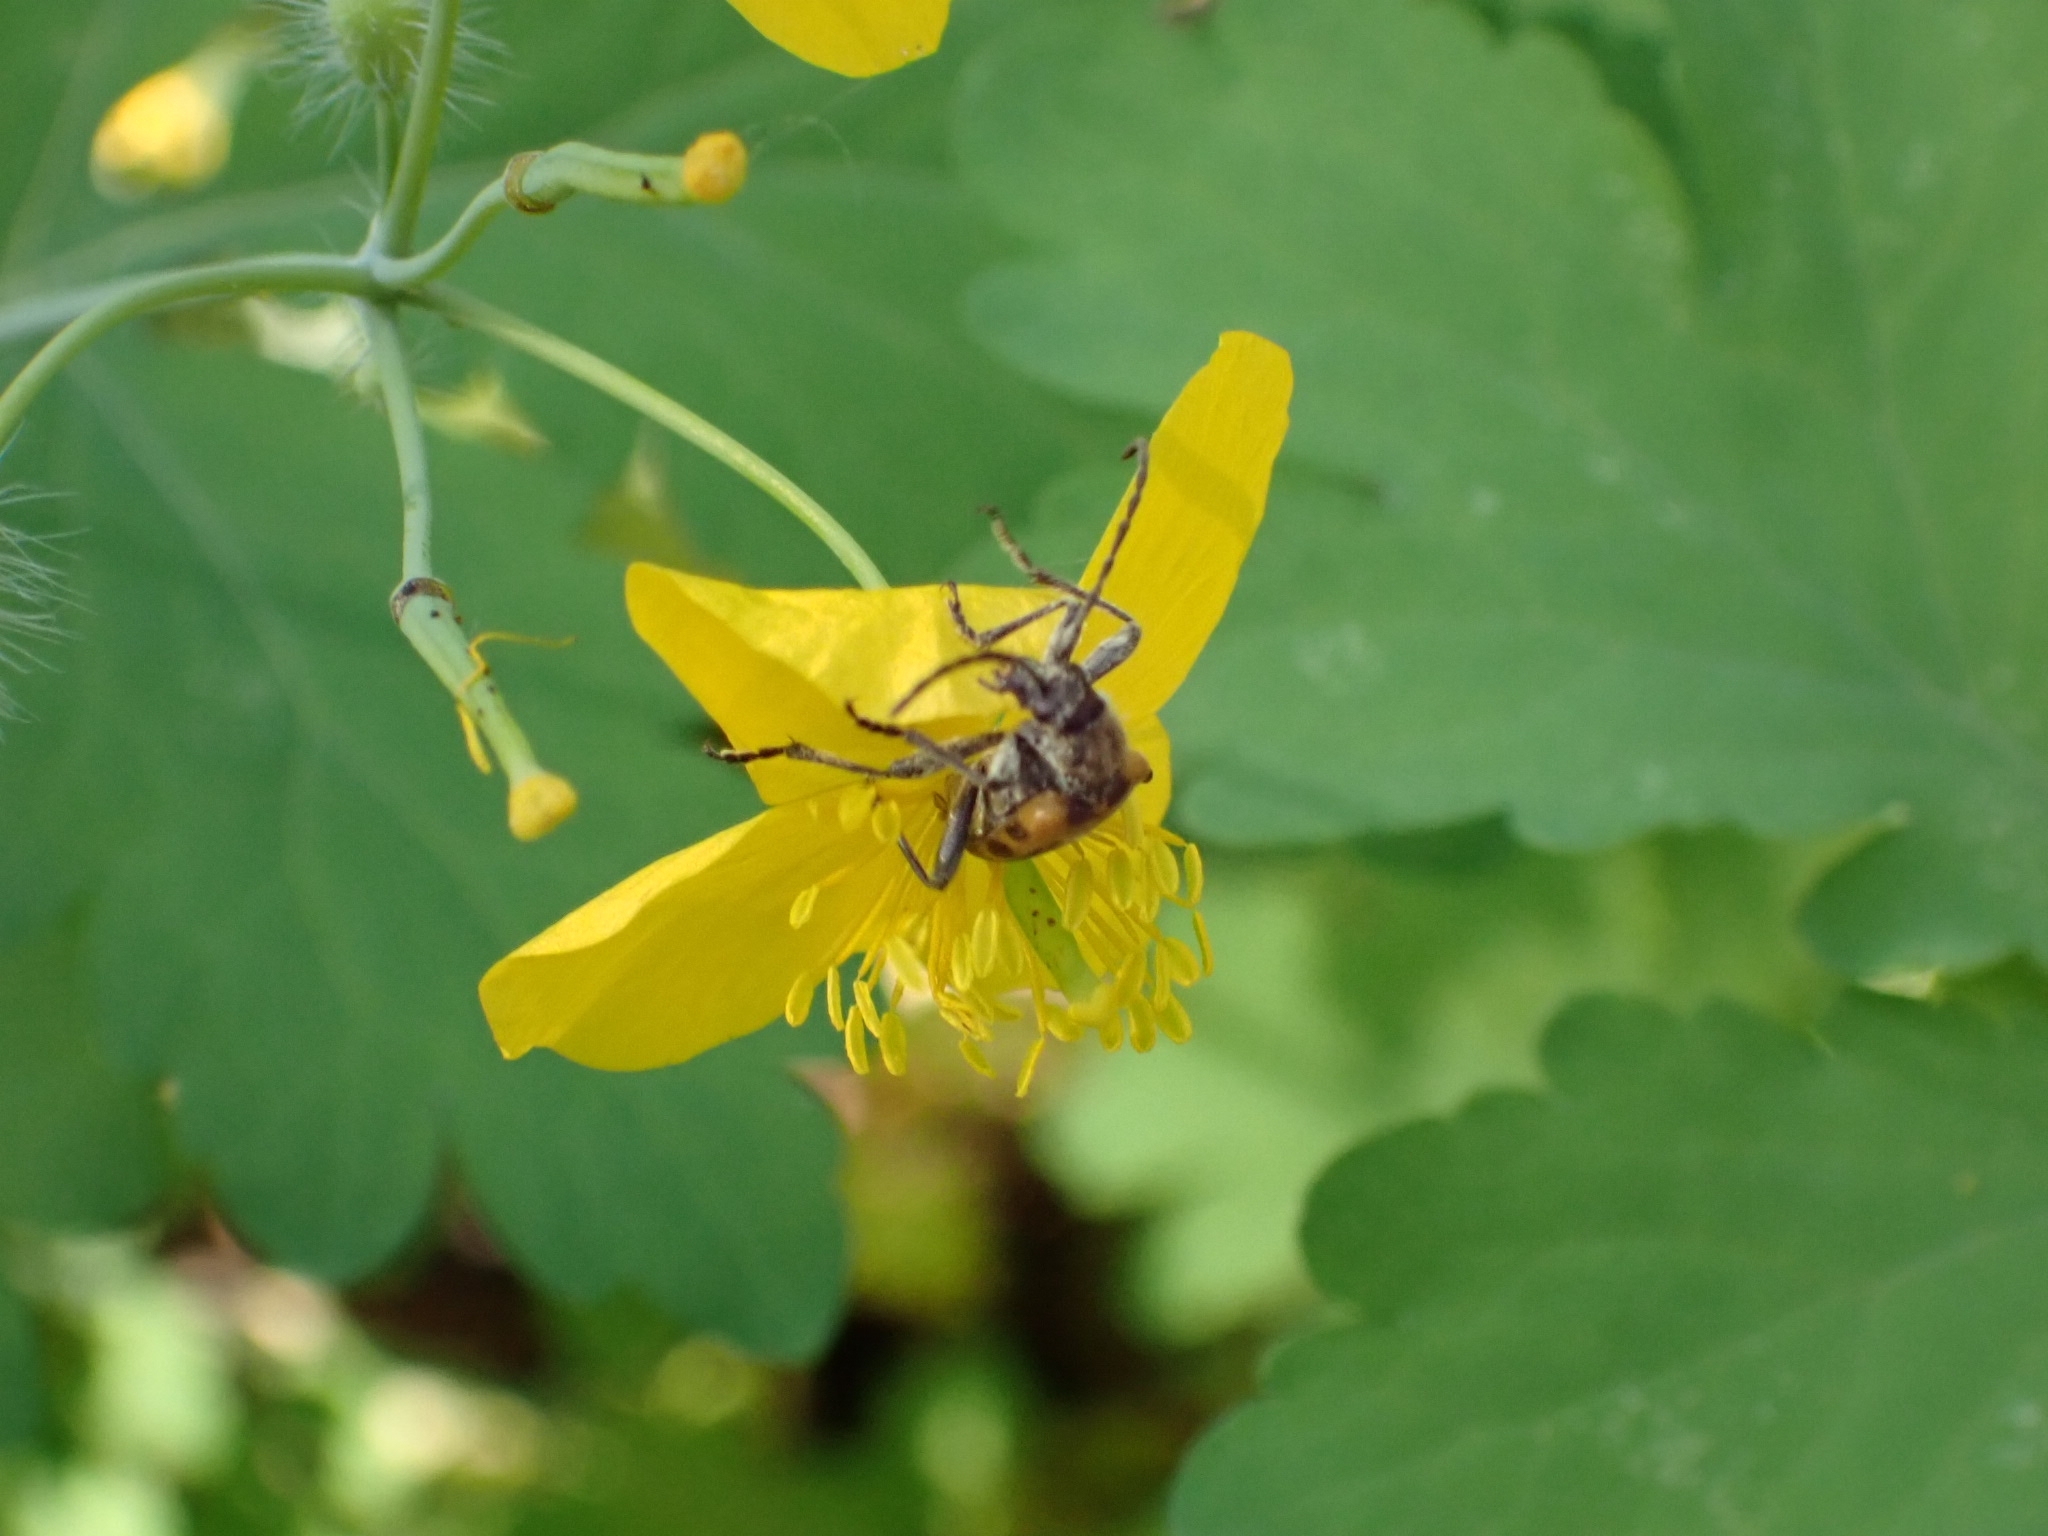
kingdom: Animalia
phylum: Arthropoda
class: Insecta
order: Coleoptera
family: Cerambycidae
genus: Brachyta
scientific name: Brachyta interrogationis
